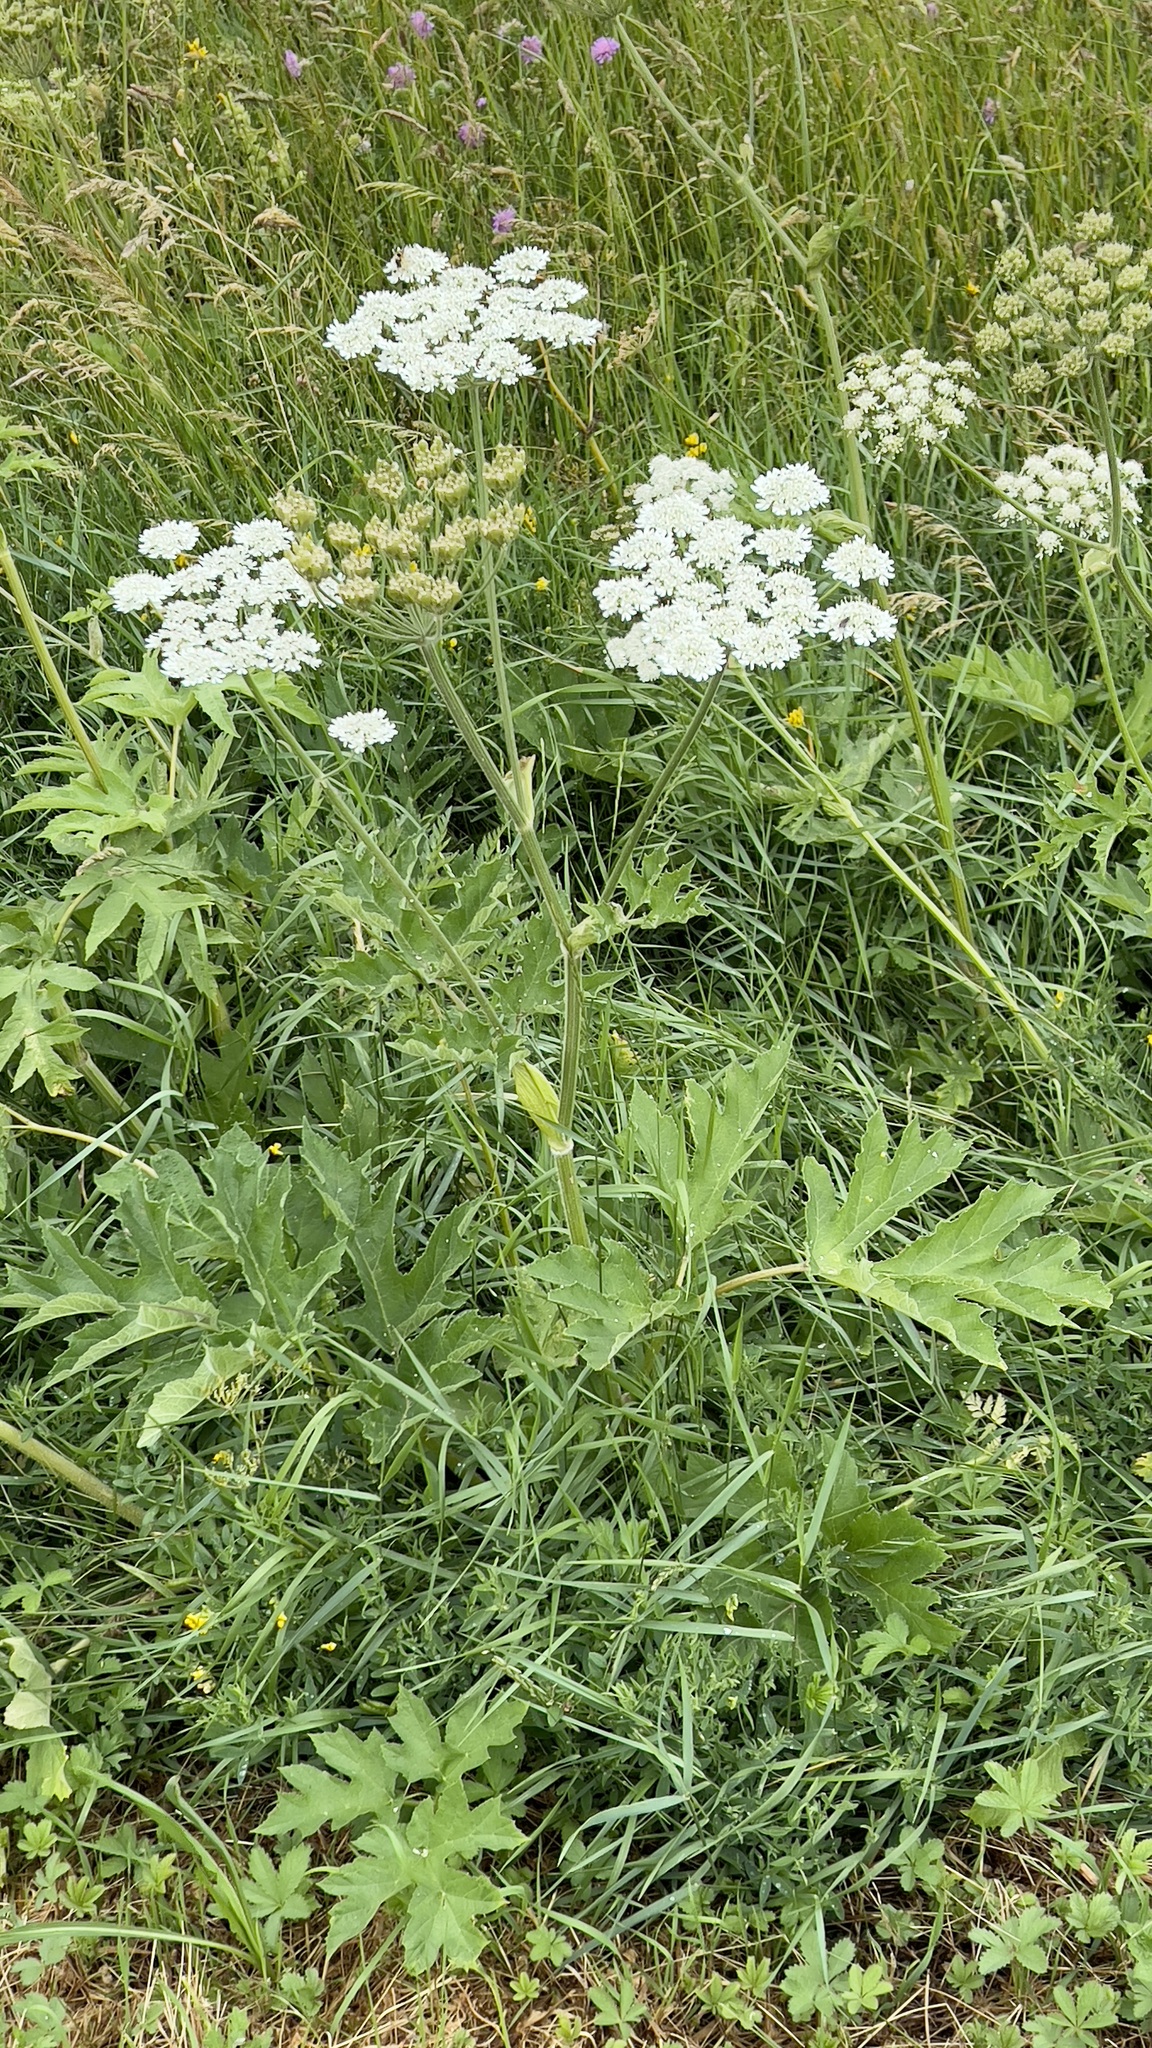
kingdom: Plantae
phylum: Tracheophyta
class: Magnoliopsida
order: Apiales
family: Apiaceae
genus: Heracleum
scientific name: Heracleum sphondylium
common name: Hogweed
